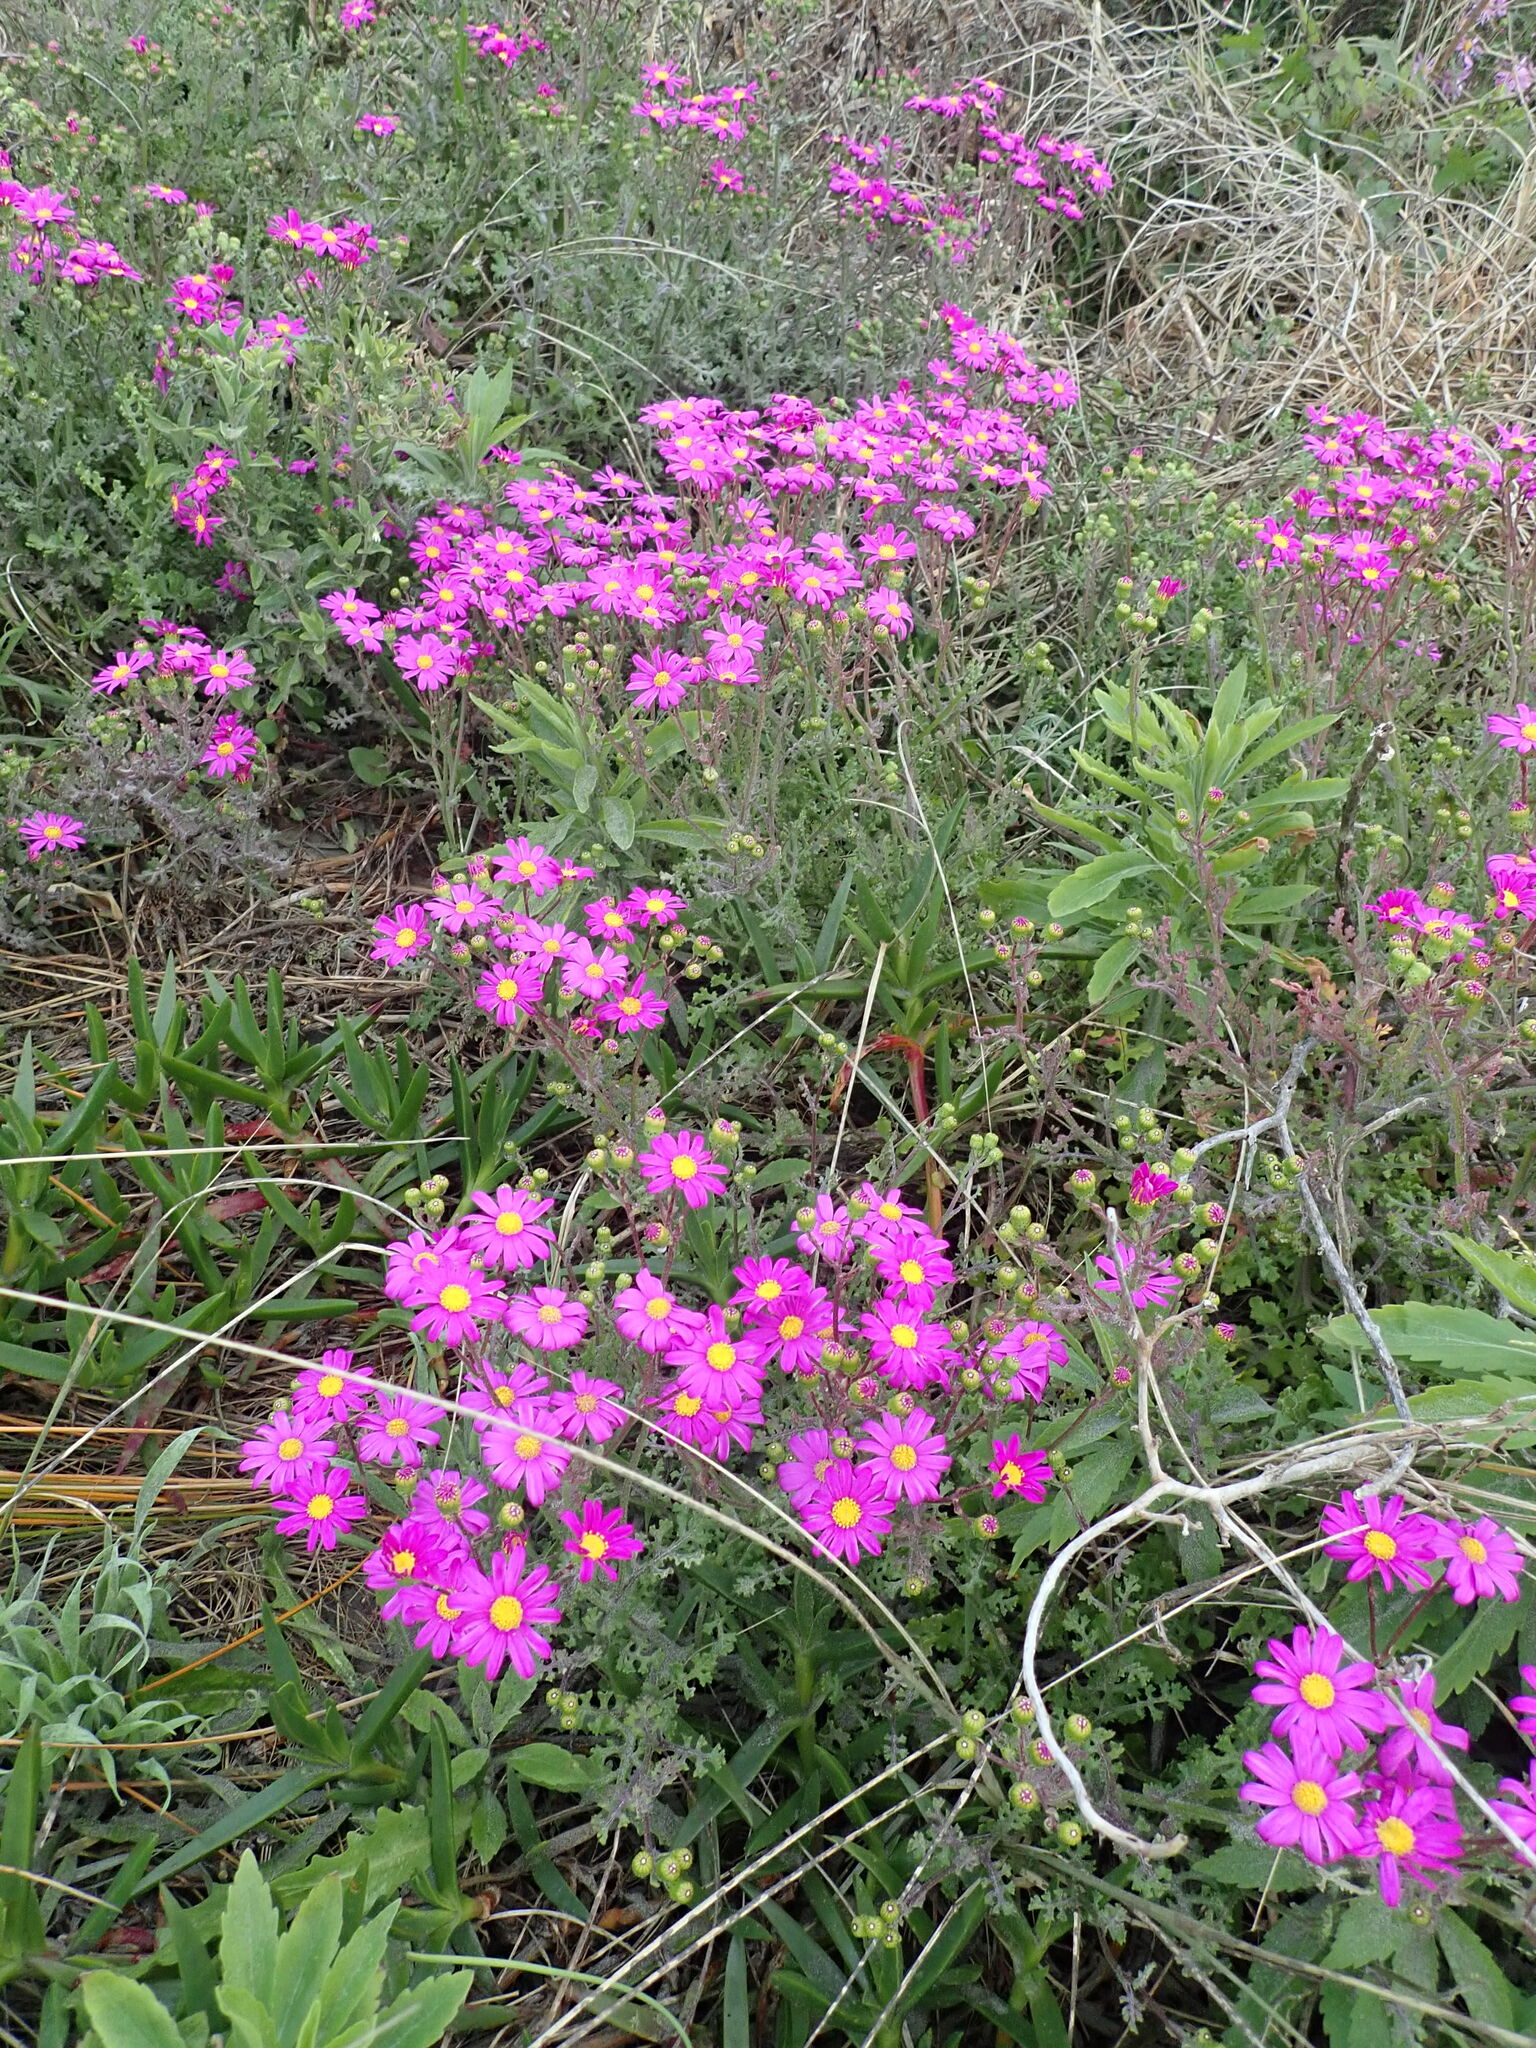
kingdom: Plantae
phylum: Tracheophyta
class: Magnoliopsida
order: Asterales
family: Asteraceae
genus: Senecio
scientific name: Senecio elegans
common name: Purple groundsel
